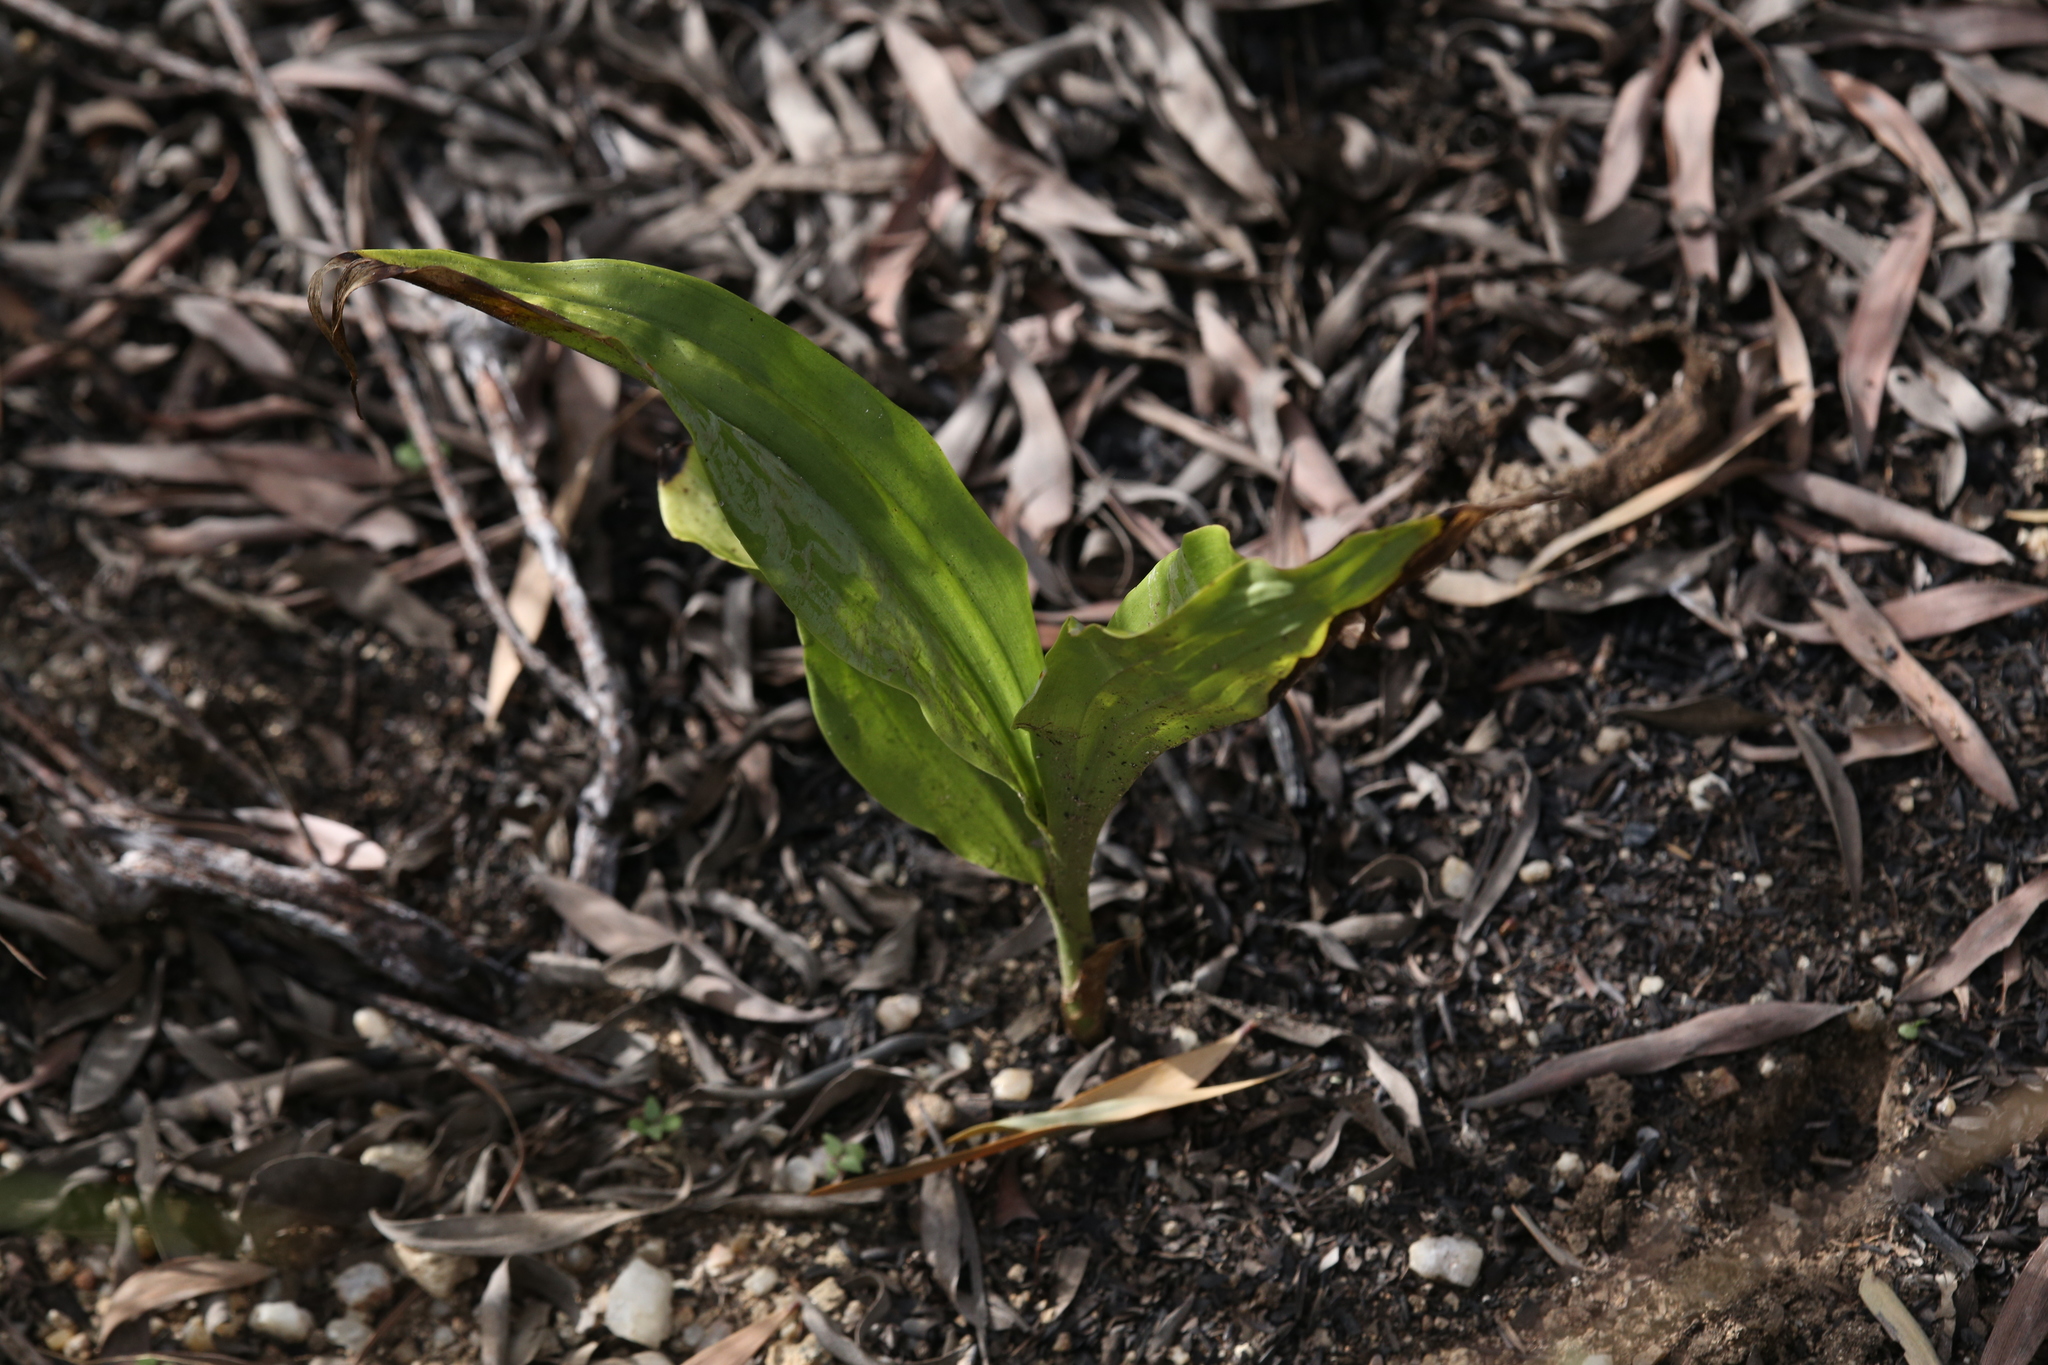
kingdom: Plantae
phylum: Tracheophyta
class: Liliopsida
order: Asparagales
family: Orchidaceae
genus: Eulophia
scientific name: Eulophia cernua
